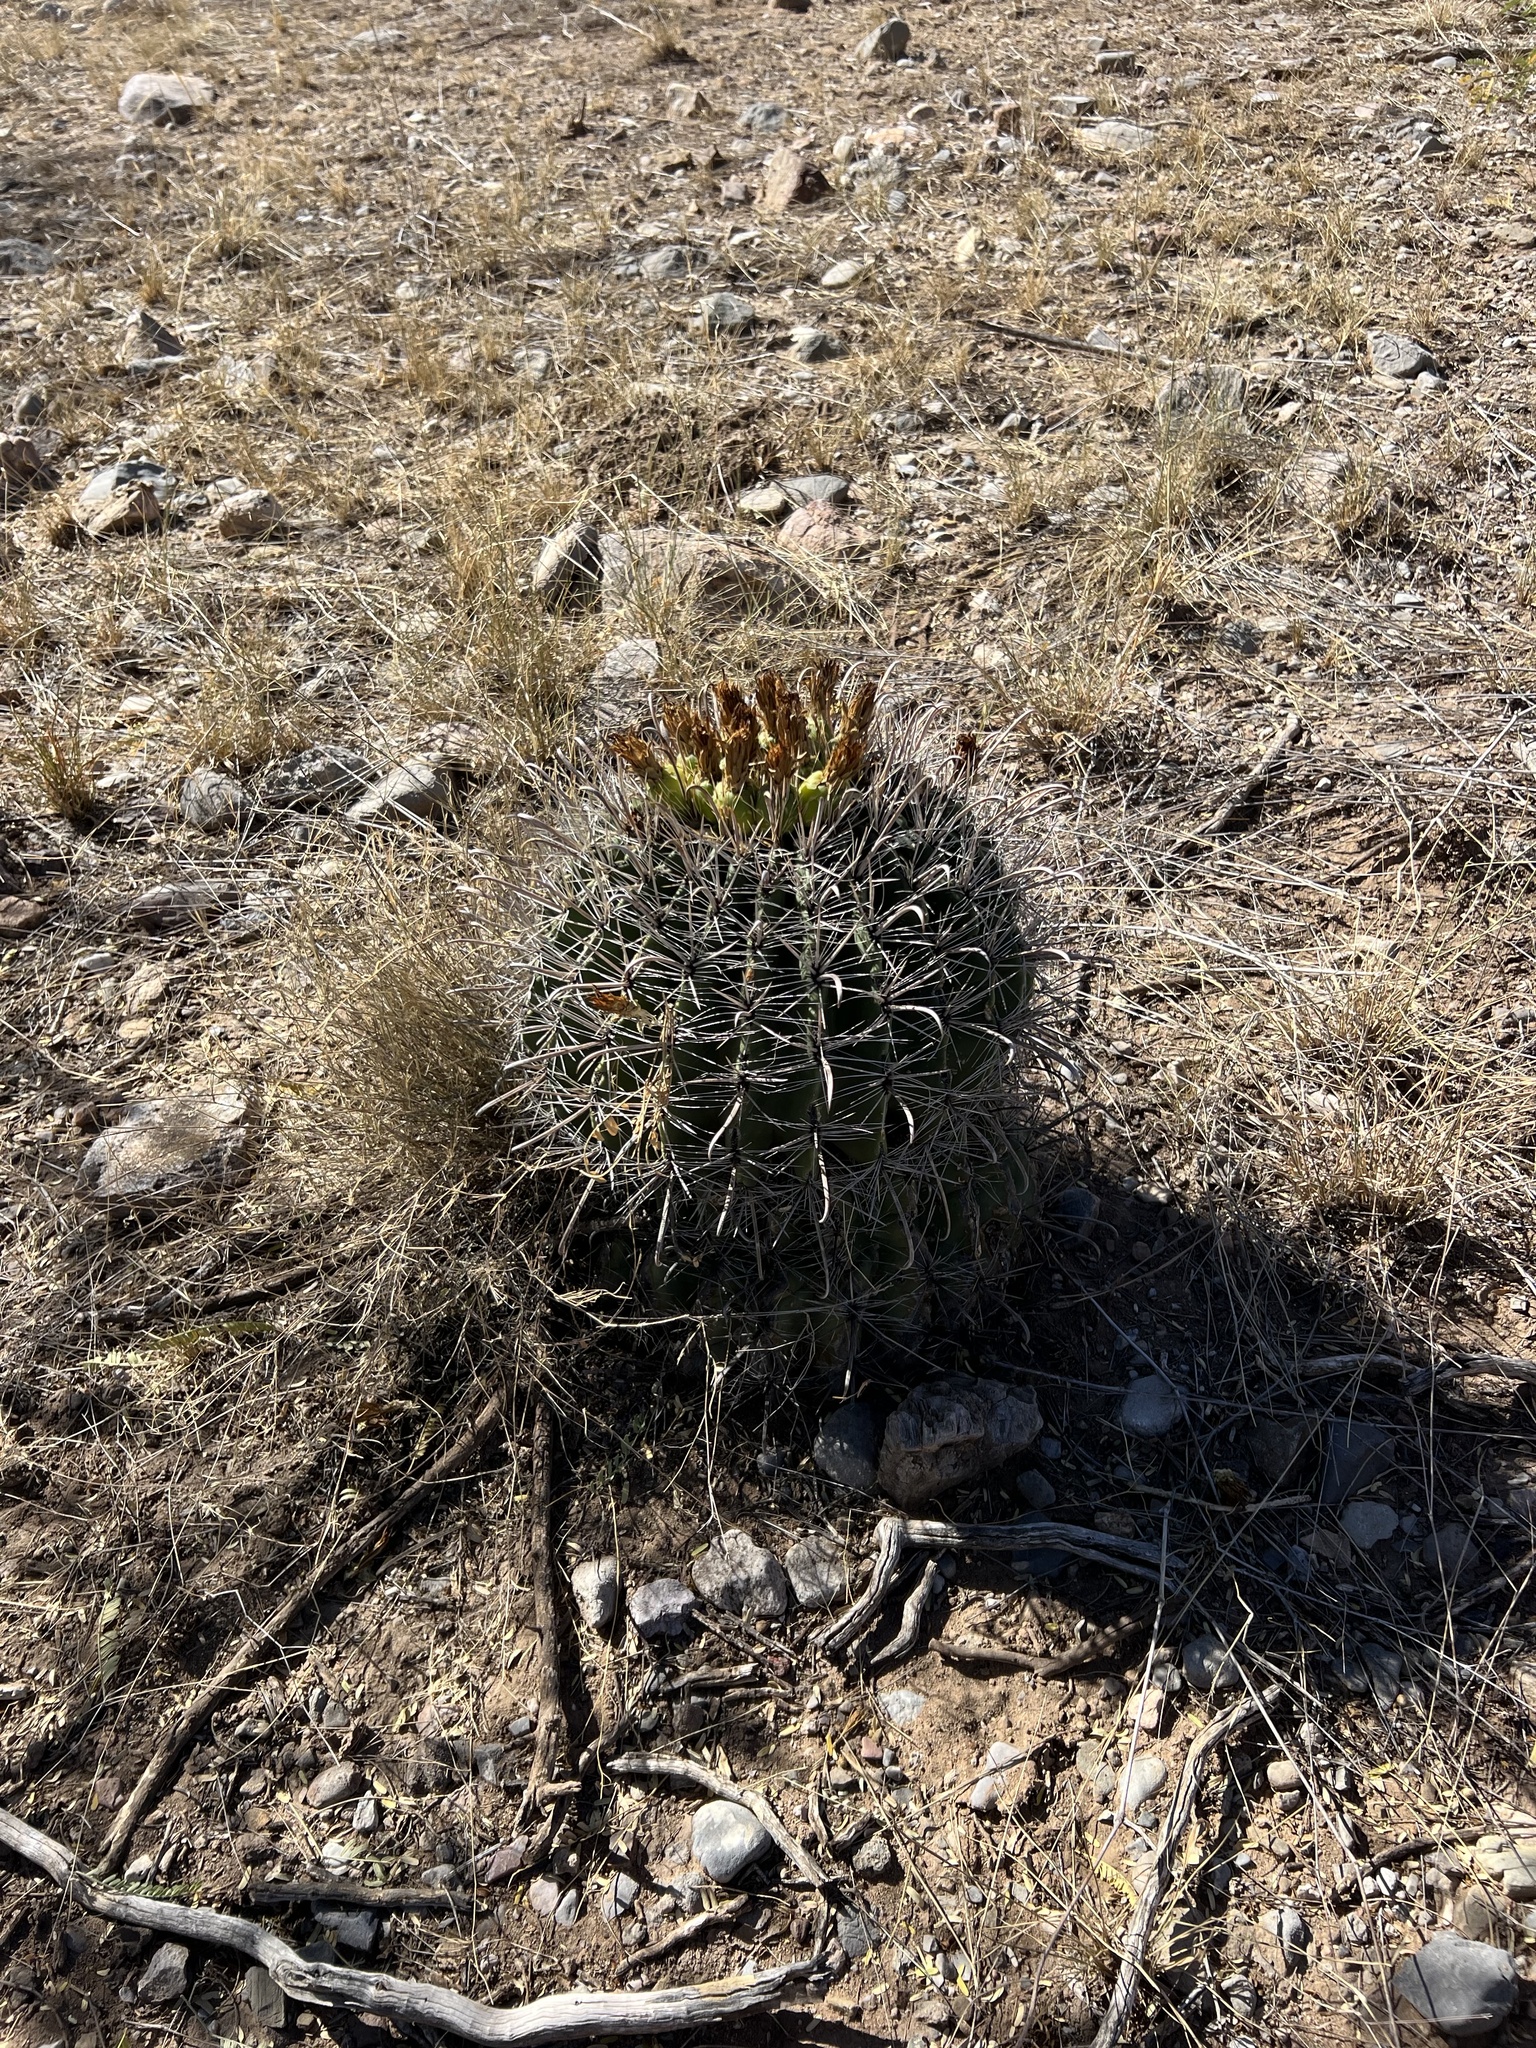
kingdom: Plantae
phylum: Tracheophyta
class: Magnoliopsida
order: Caryophyllales
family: Cactaceae
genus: Ferocactus
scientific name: Ferocactus wislizeni
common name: Candy barrel cactus
